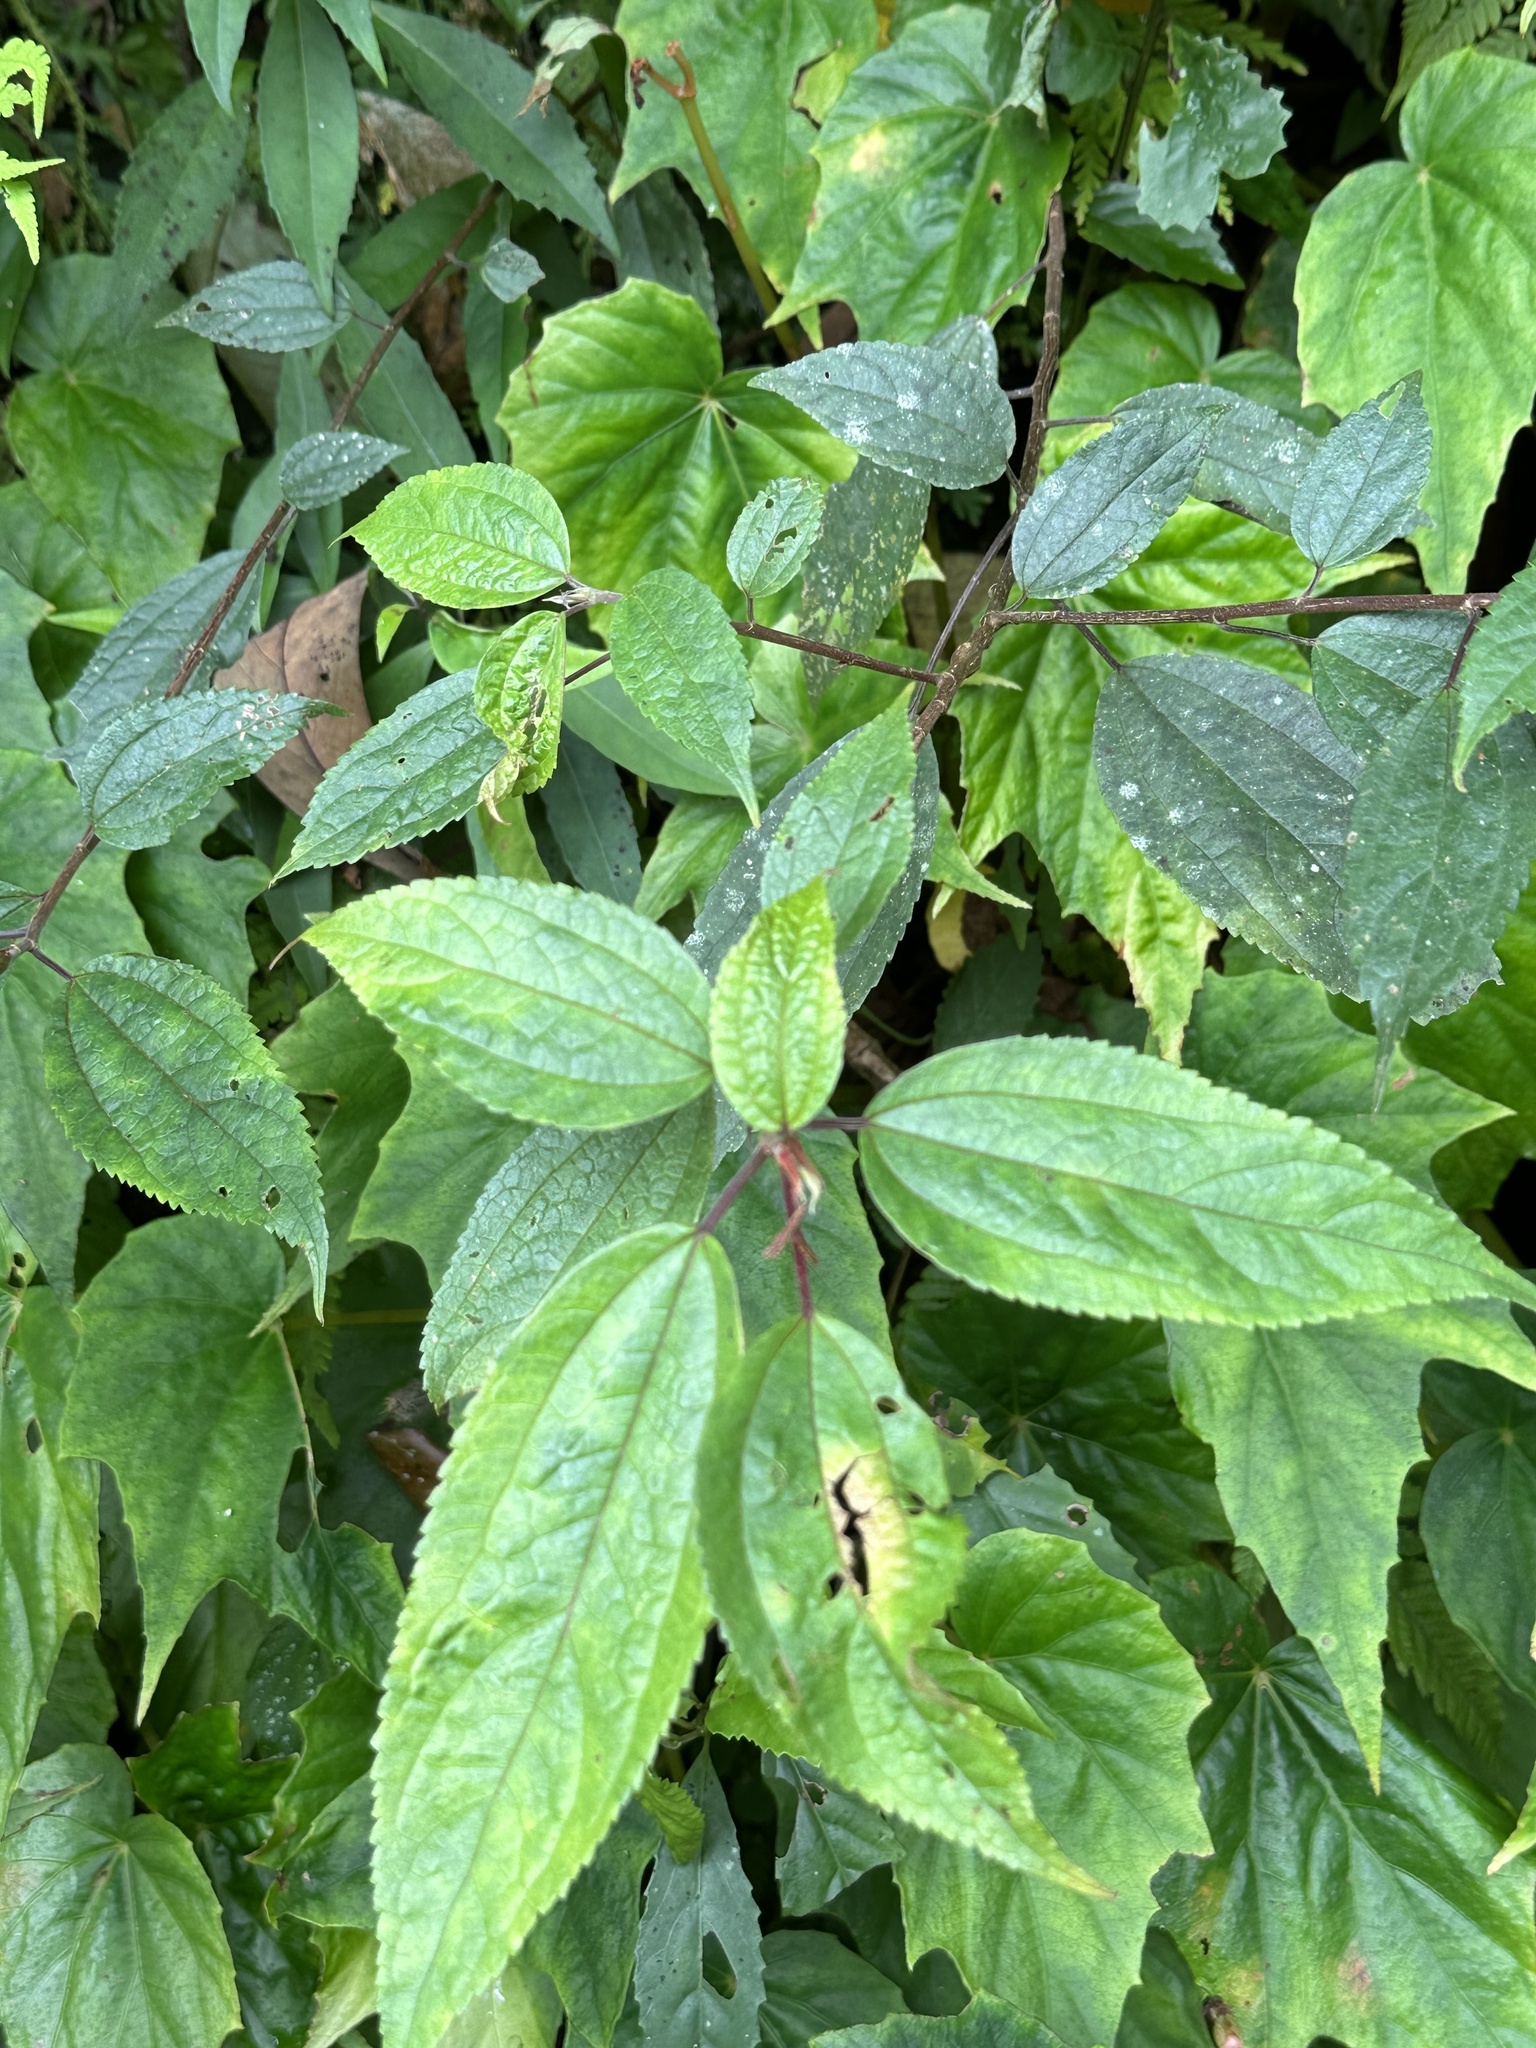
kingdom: Plantae
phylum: Tracheophyta
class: Magnoliopsida
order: Rosales
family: Urticaceae
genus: Oreocnide
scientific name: Oreocnide pedunculata
